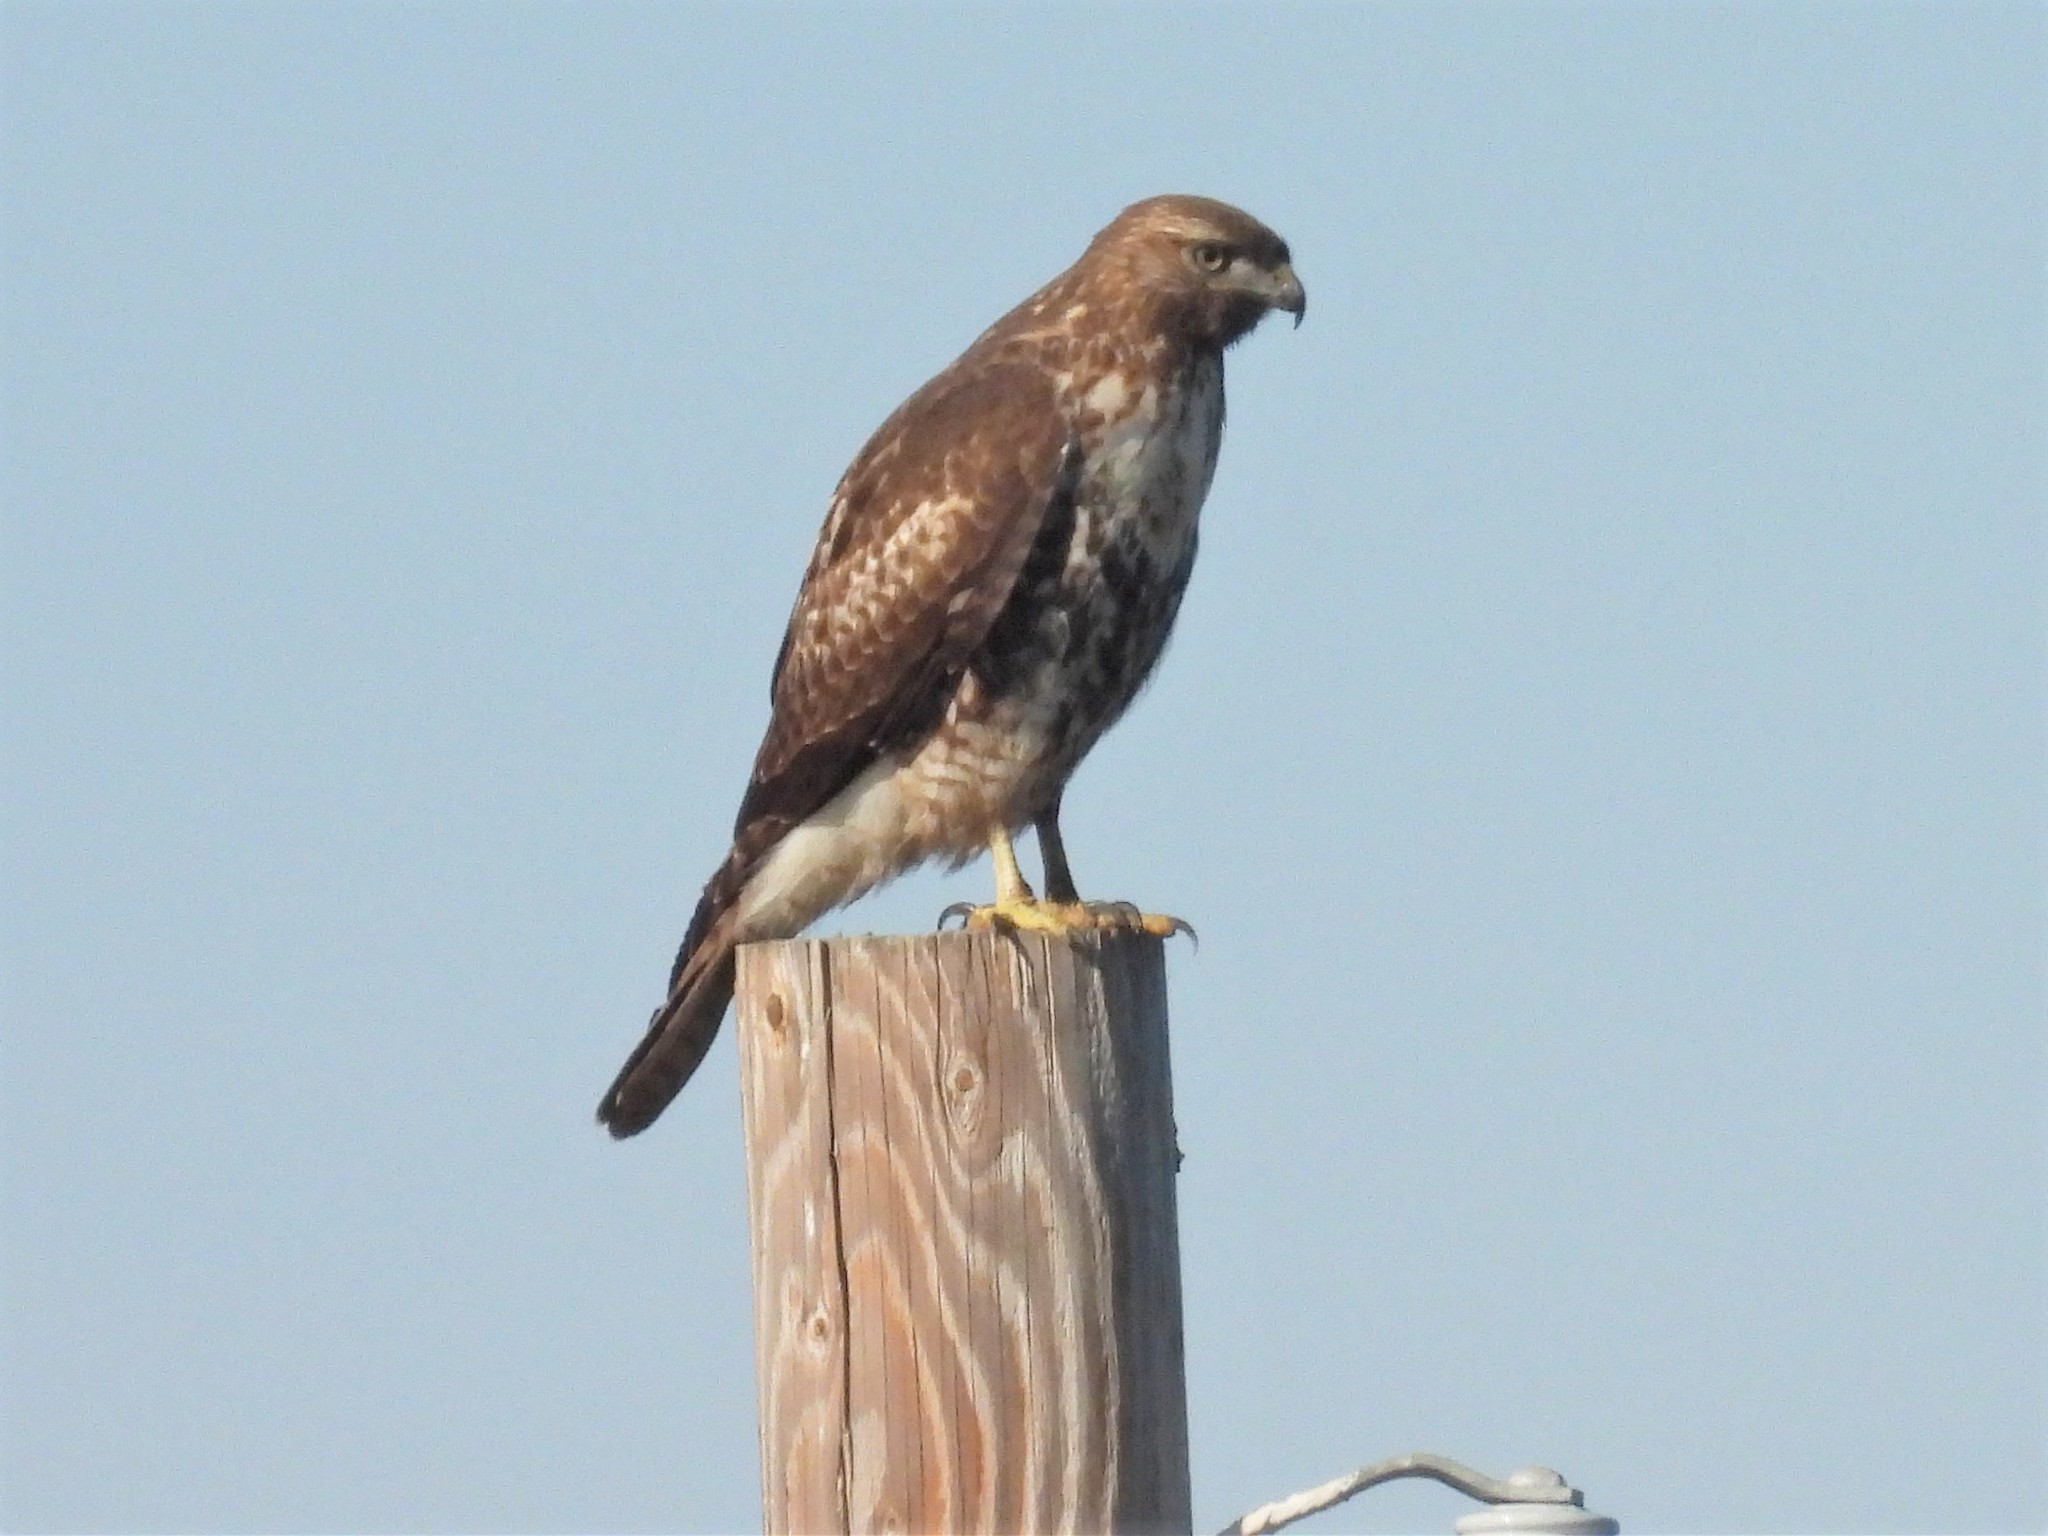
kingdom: Animalia
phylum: Chordata
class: Aves
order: Accipitriformes
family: Accipitridae
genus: Buteo
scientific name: Buteo jamaicensis
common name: Red-tailed hawk
